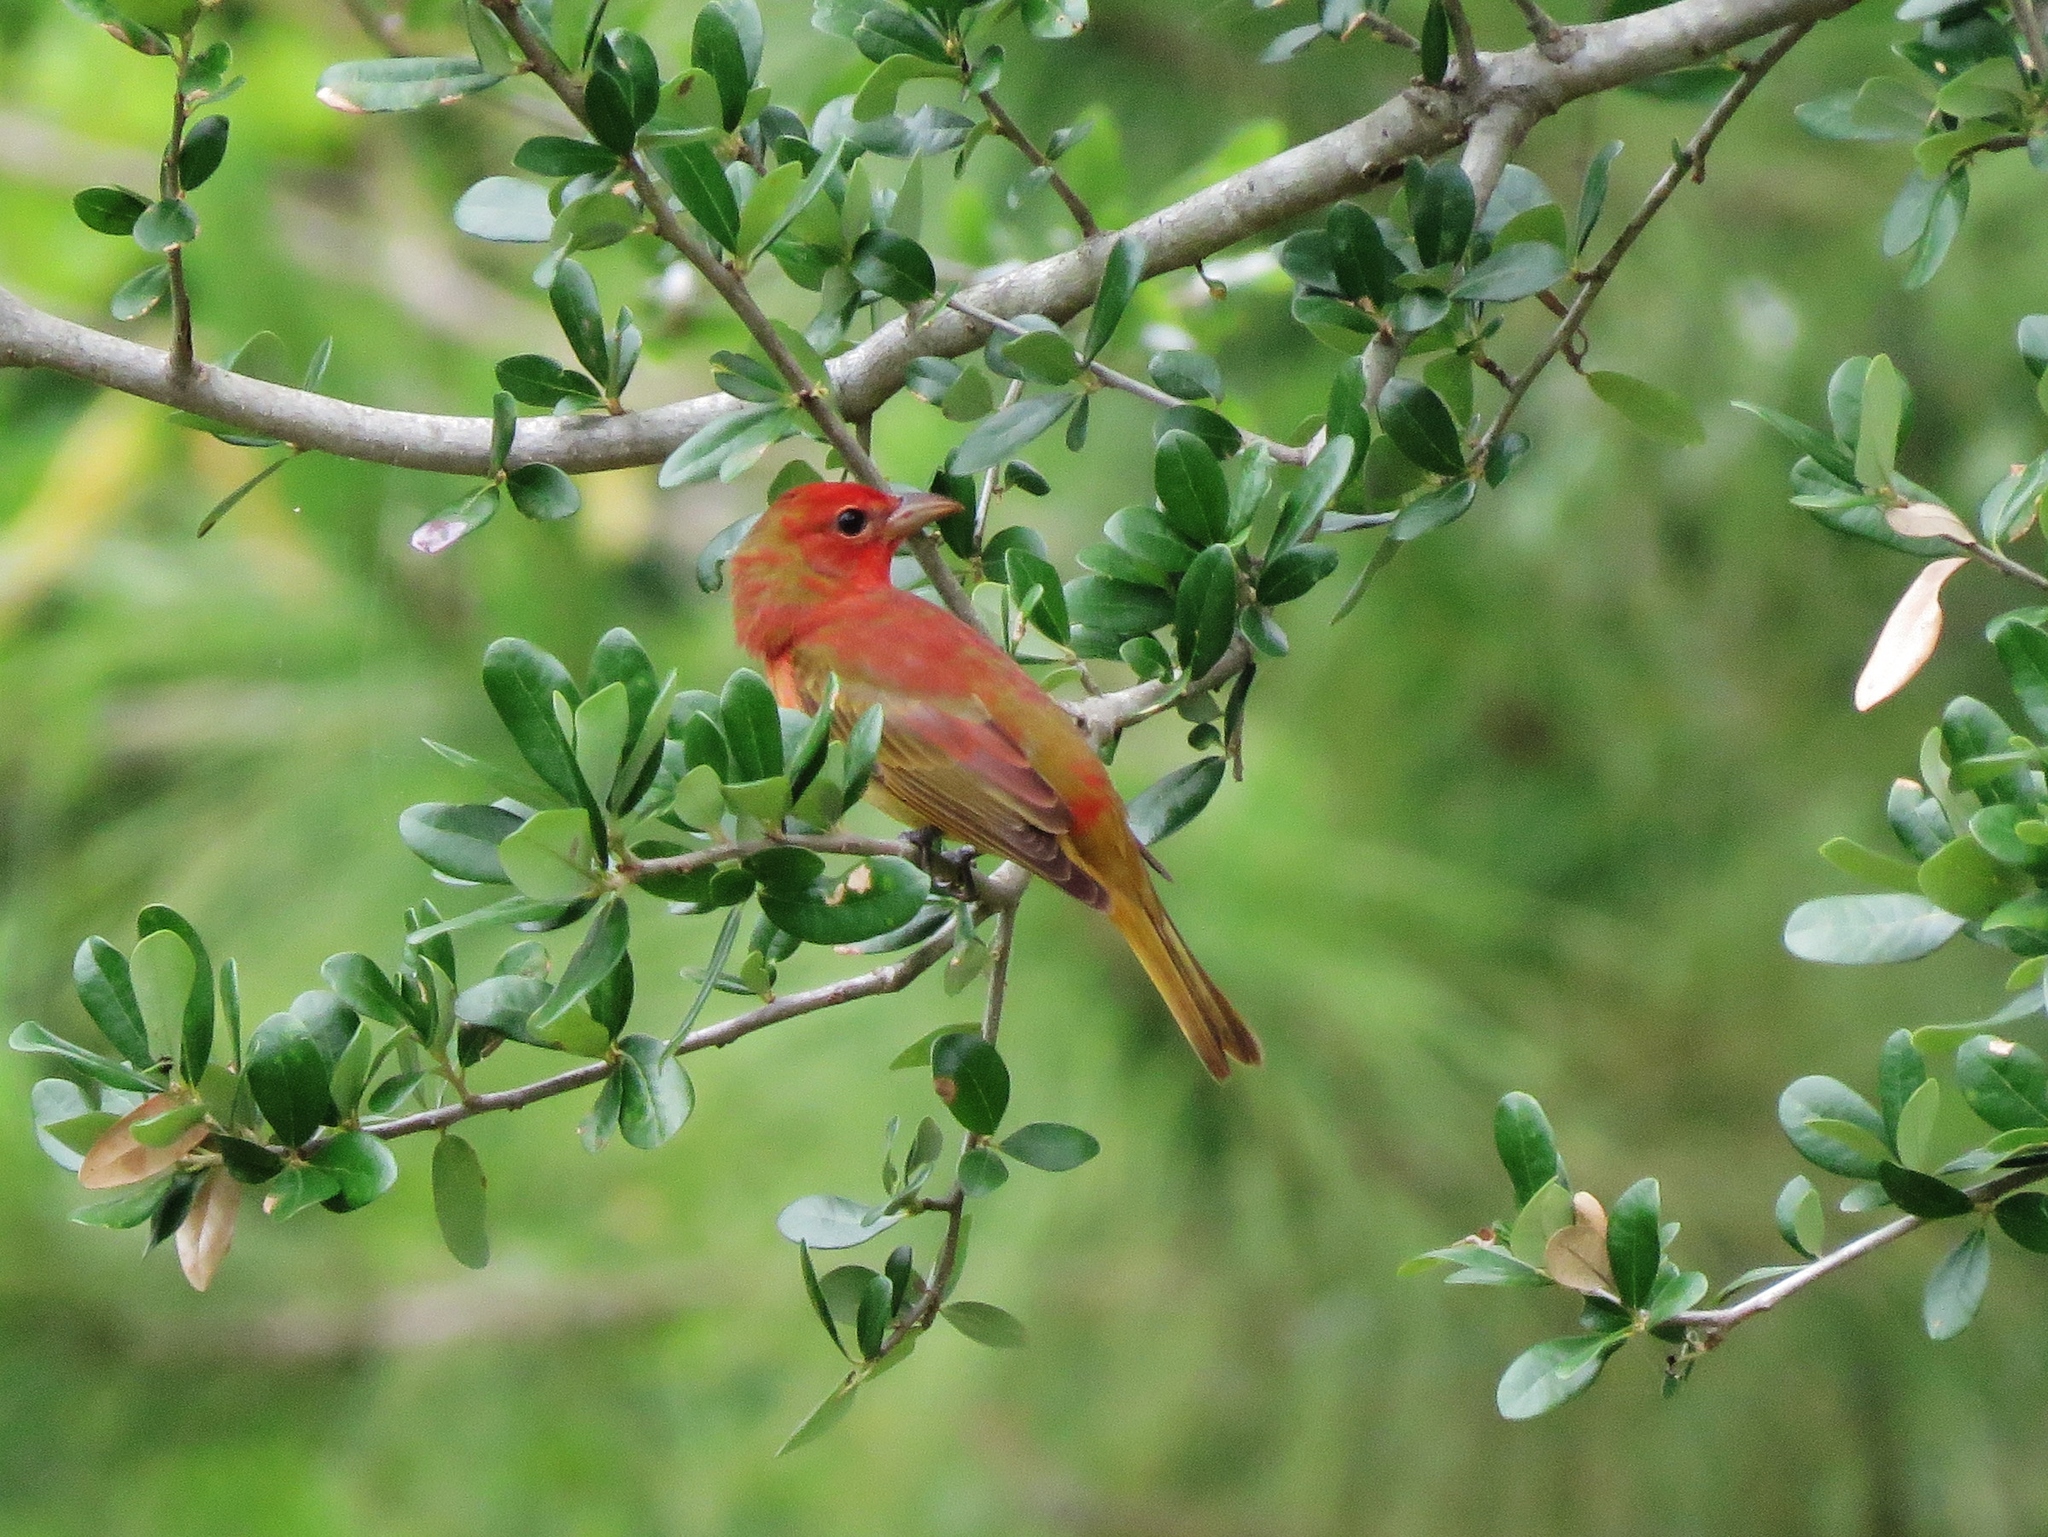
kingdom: Animalia
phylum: Chordata
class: Aves
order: Passeriformes
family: Cardinalidae
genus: Piranga
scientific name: Piranga rubra
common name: Summer tanager
